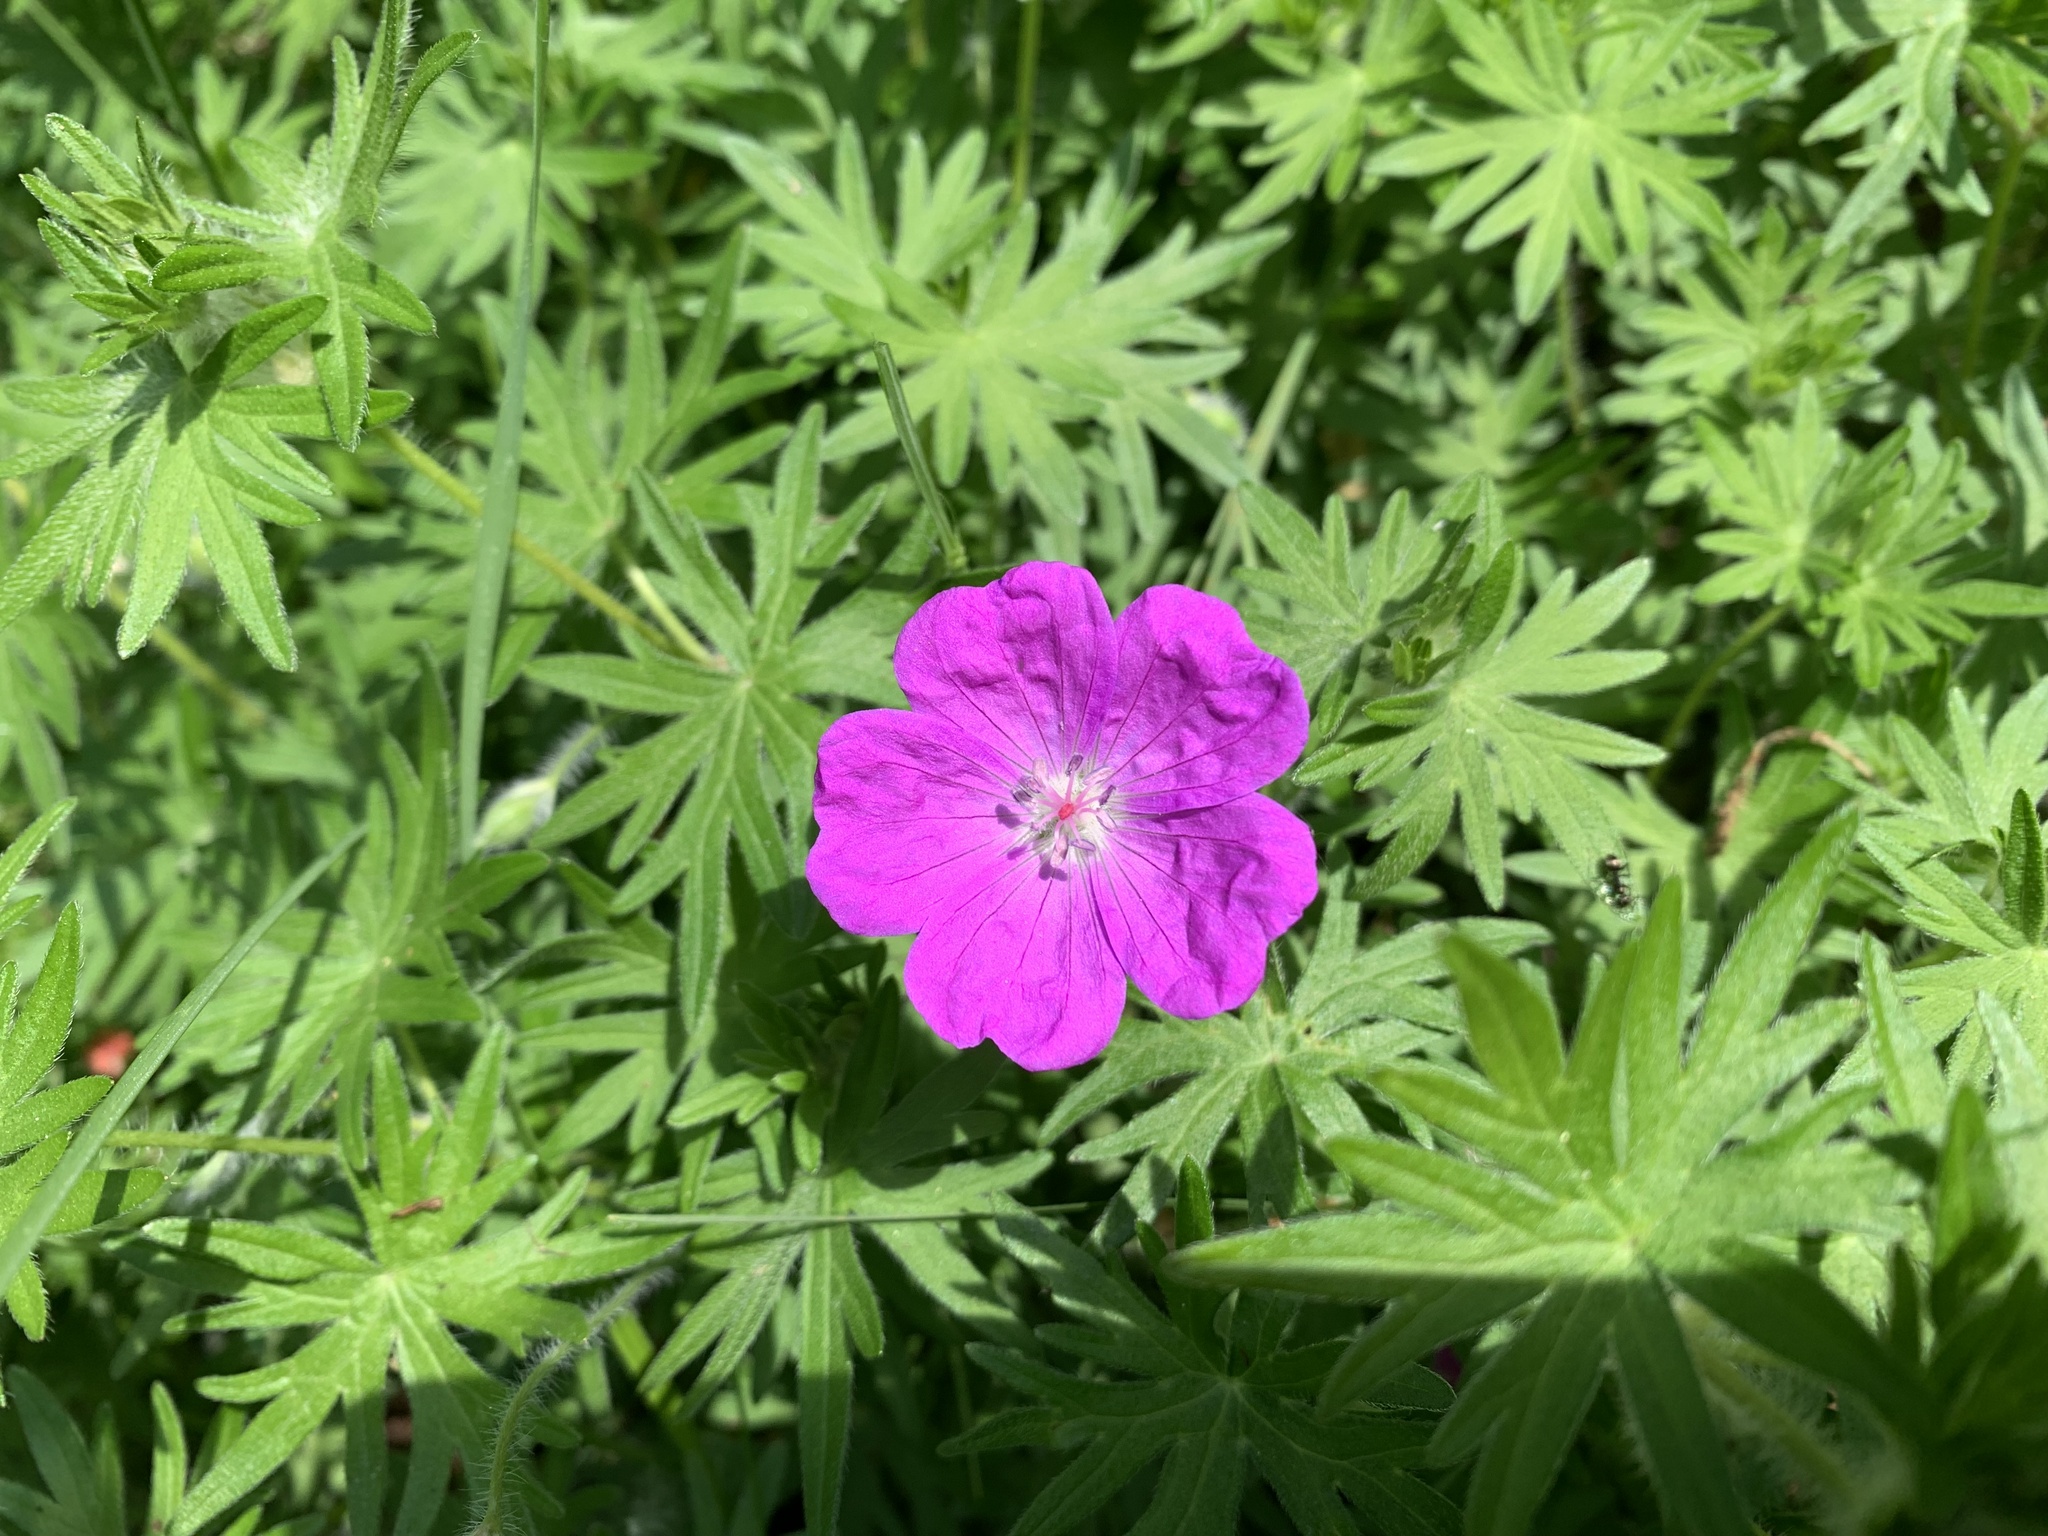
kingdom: Plantae
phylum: Tracheophyta
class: Magnoliopsida
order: Geraniales
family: Geraniaceae
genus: Geranium
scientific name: Geranium sanguineum
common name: Bloody crane's-bill
